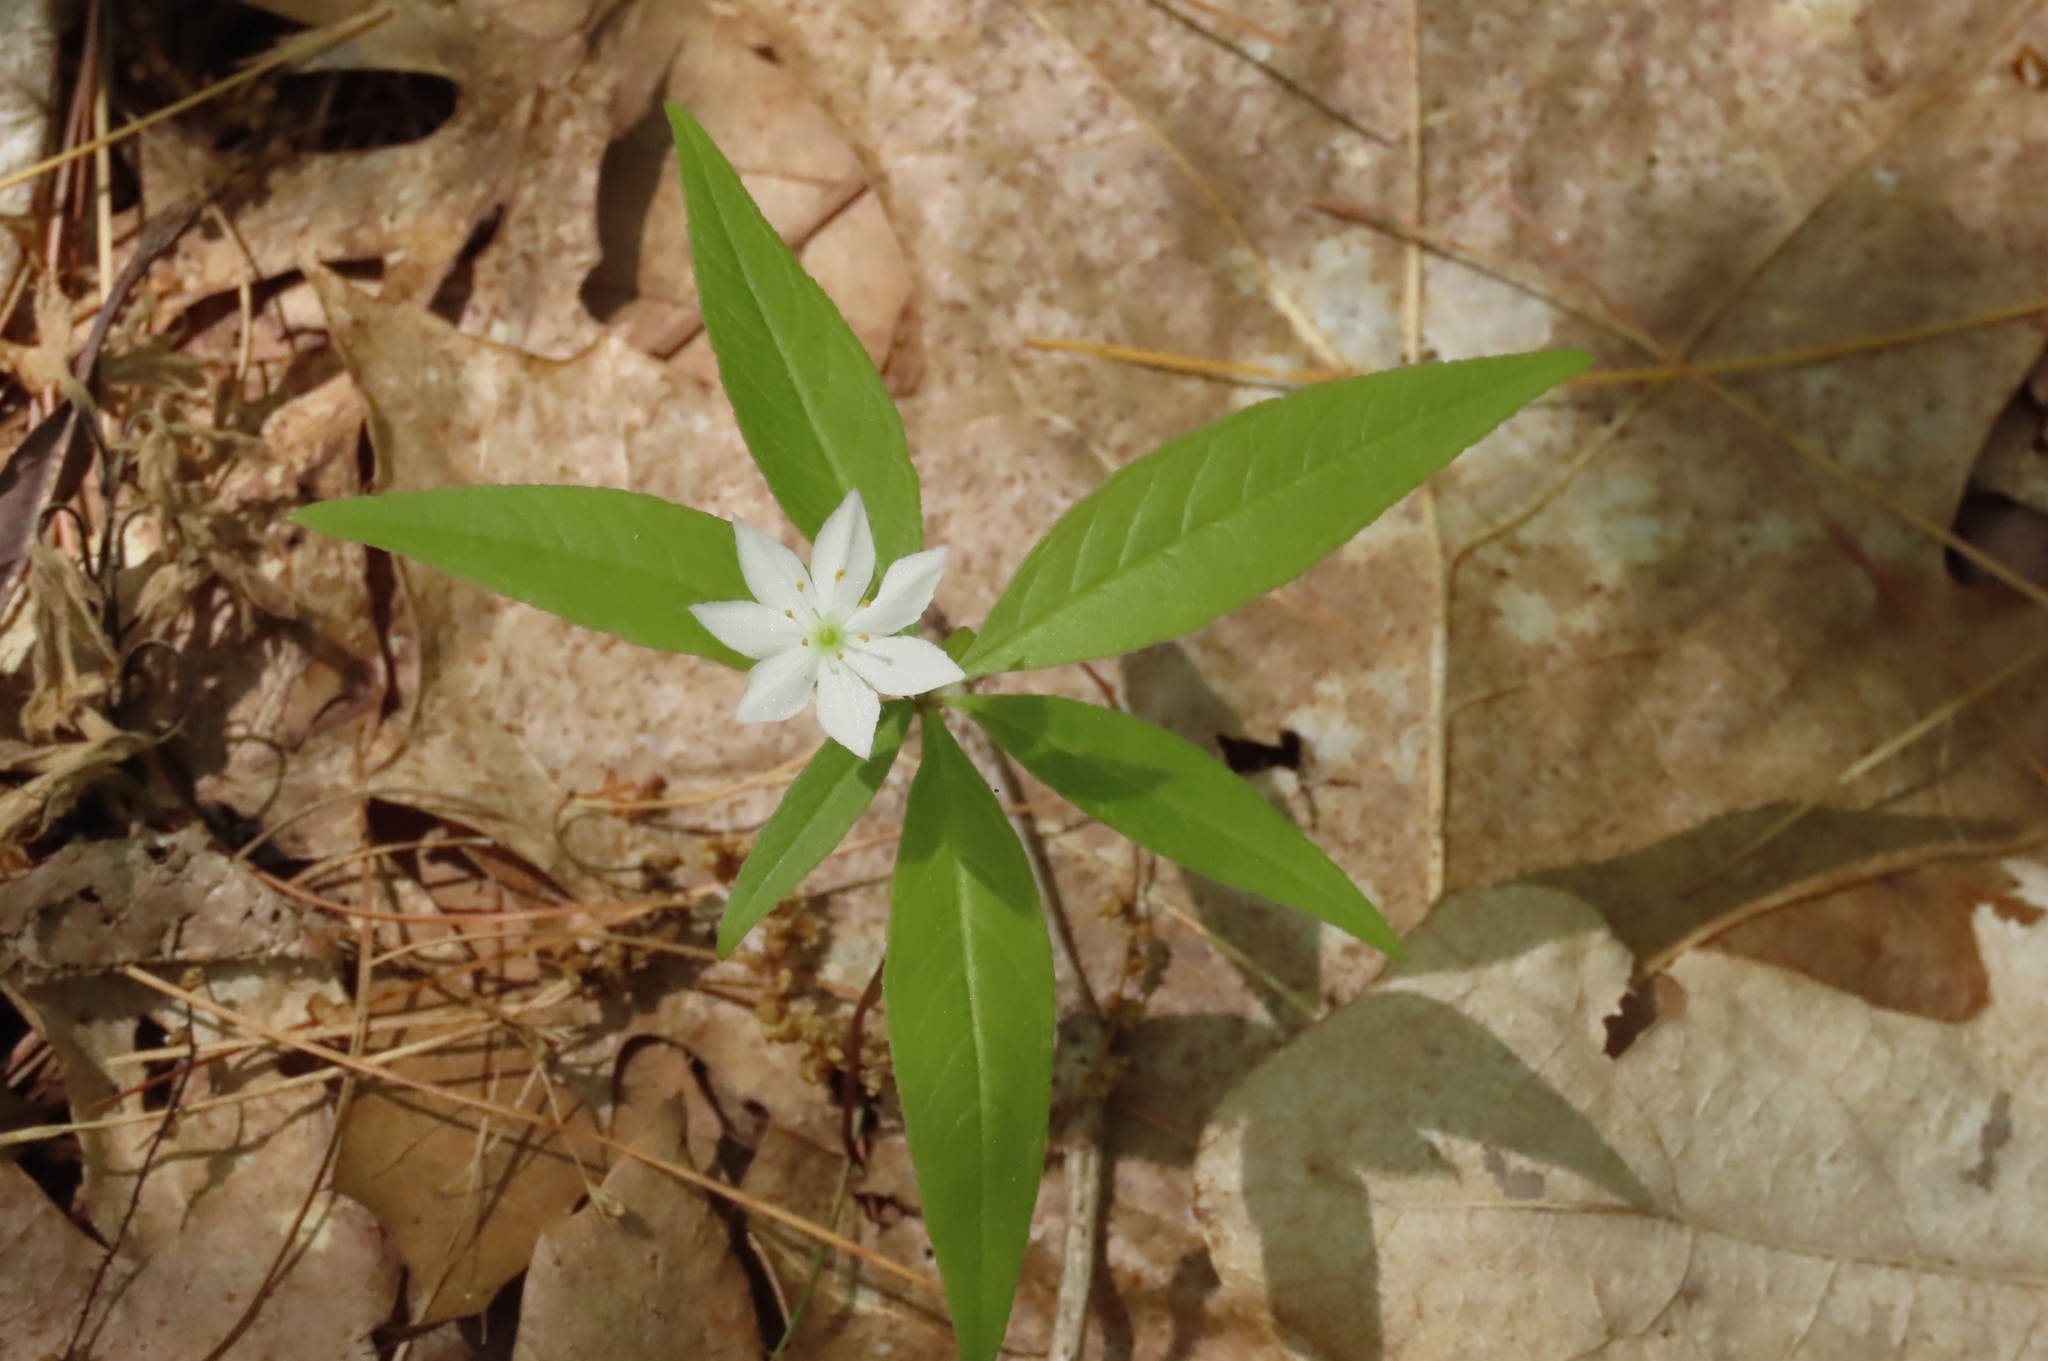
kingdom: Plantae
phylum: Tracheophyta
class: Magnoliopsida
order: Ericales
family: Primulaceae
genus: Lysimachia
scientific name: Lysimachia borealis
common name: American starflower
